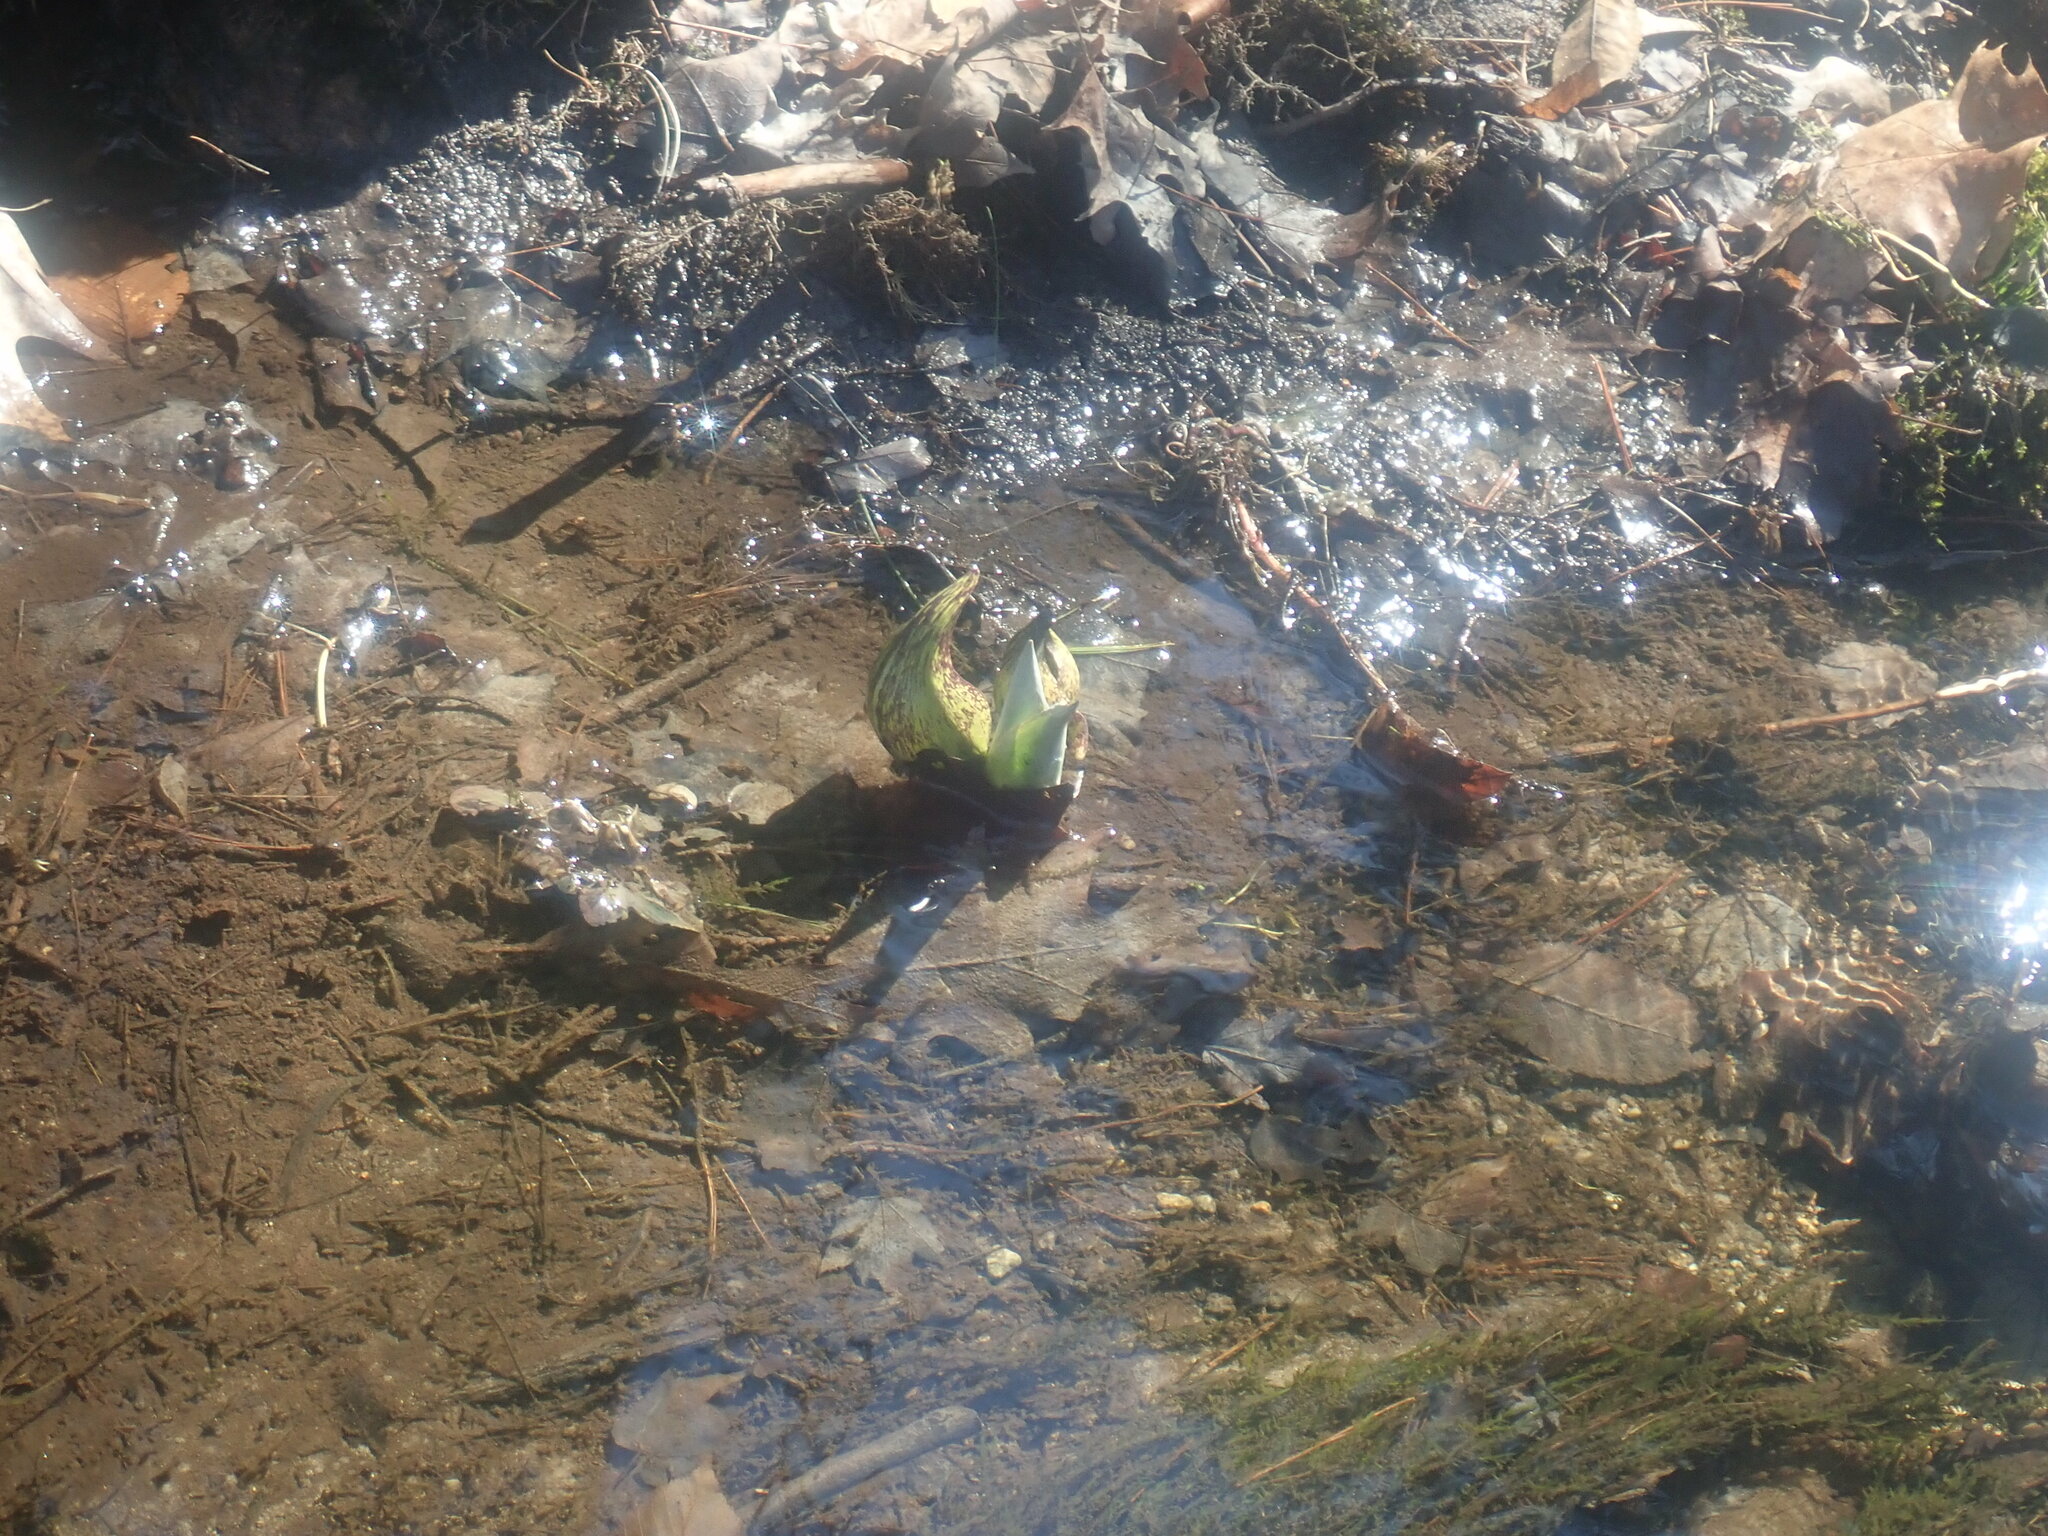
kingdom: Plantae
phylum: Tracheophyta
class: Liliopsida
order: Alismatales
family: Araceae
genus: Symplocarpus
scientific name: Symplocarpus foetidus
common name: Eastern skunk cabbage
